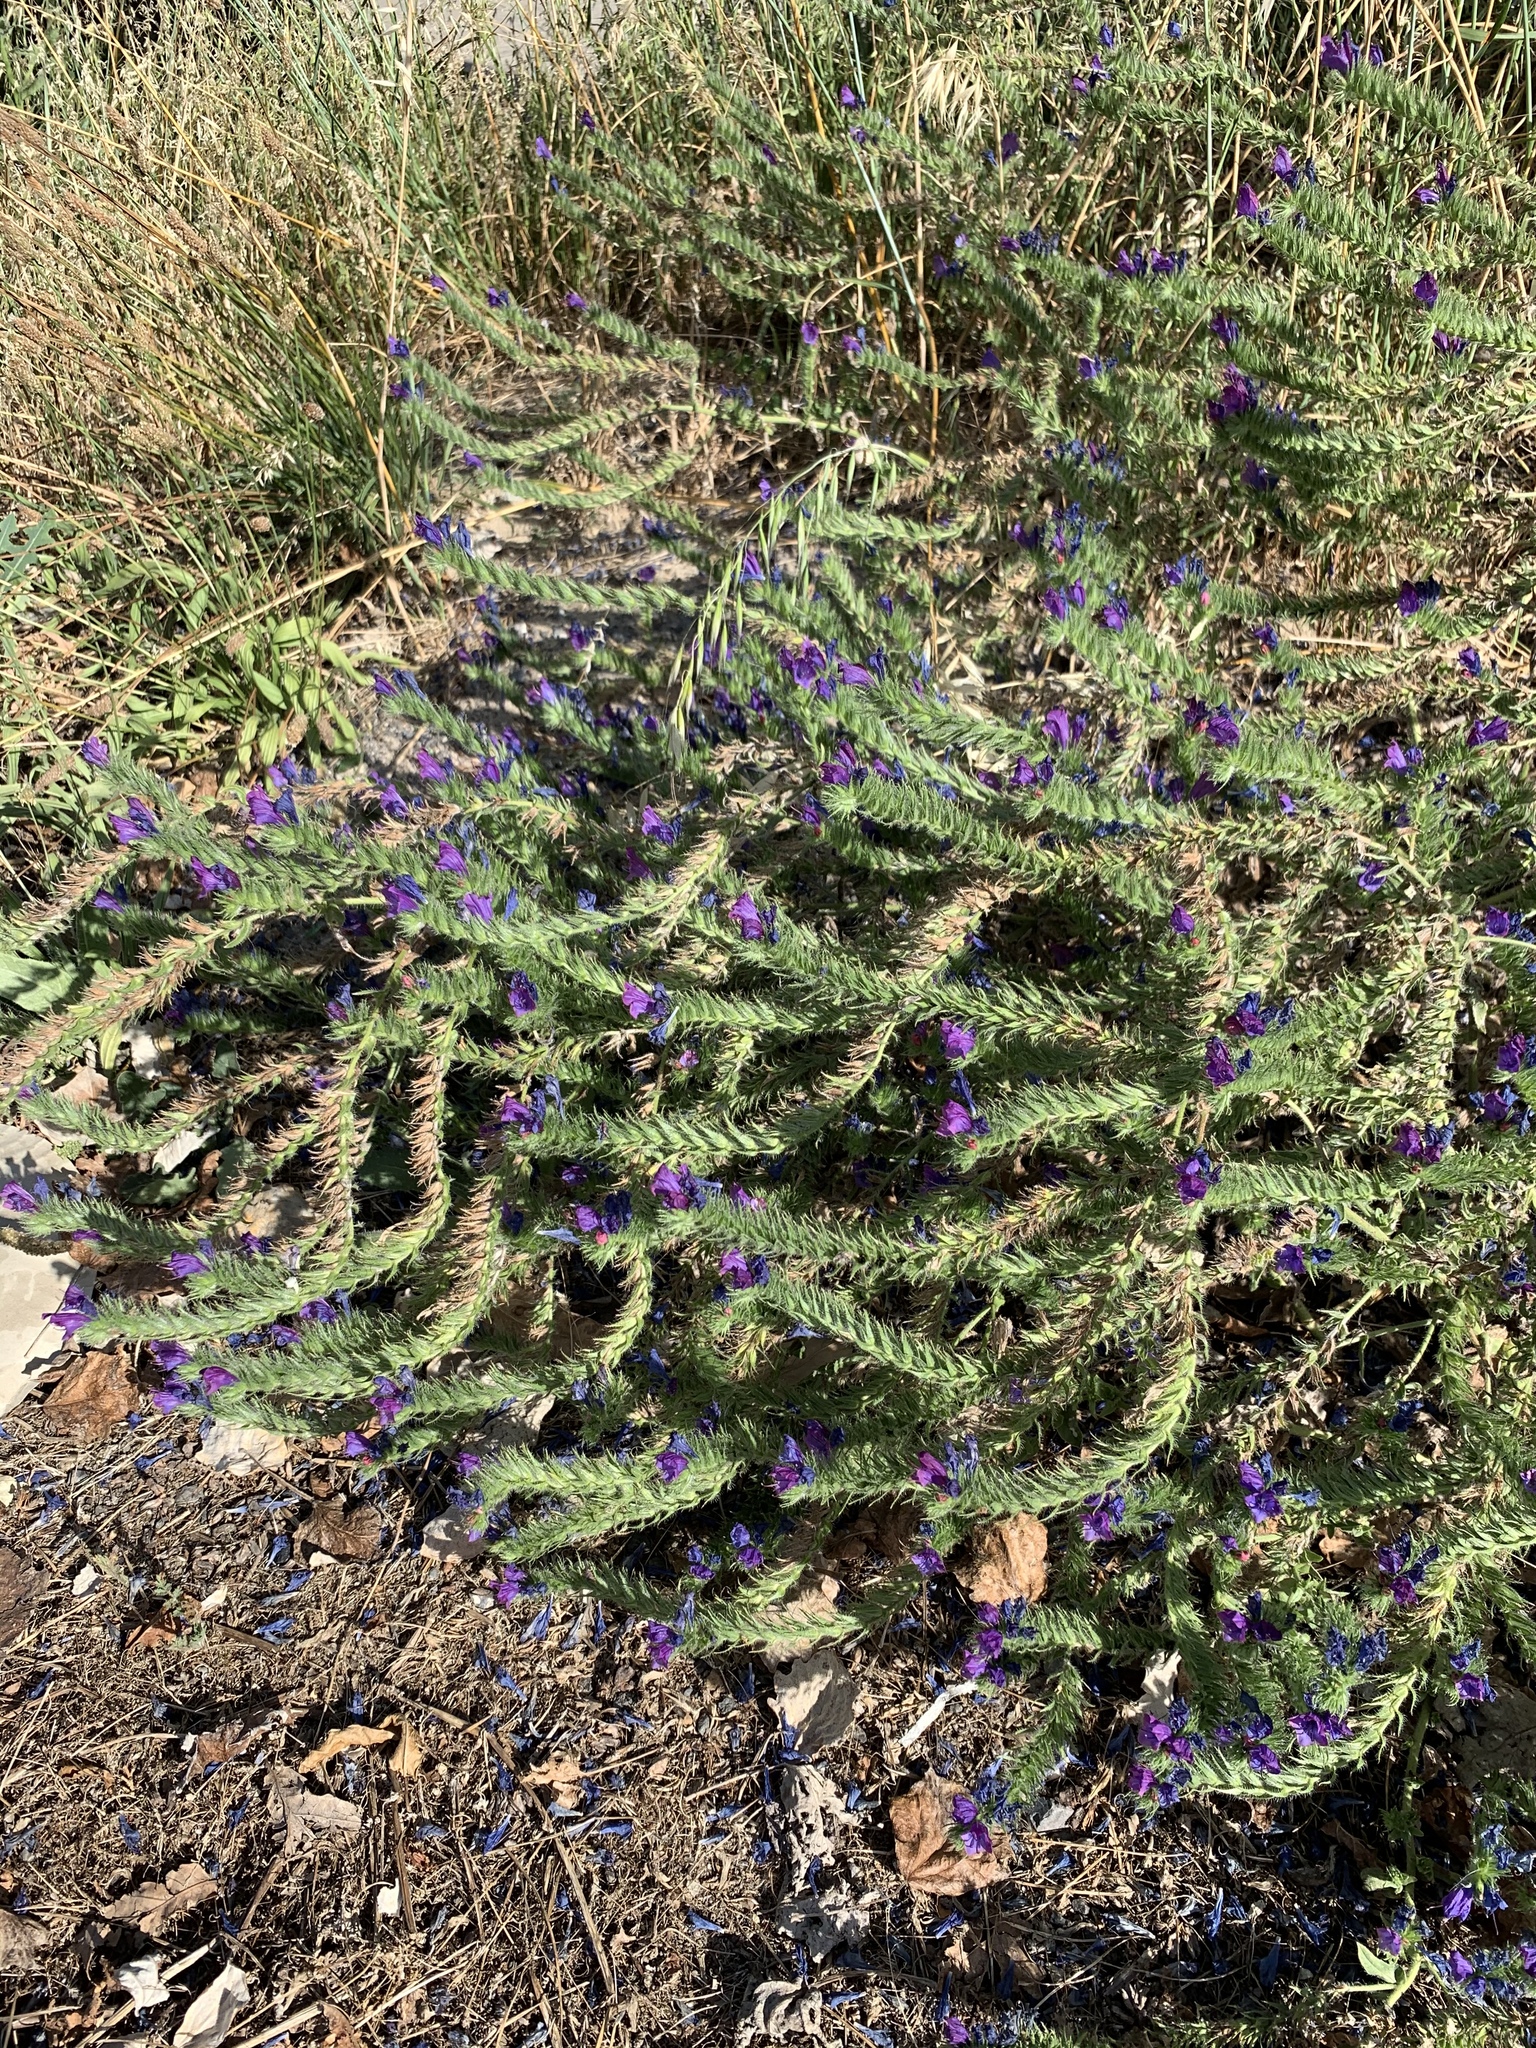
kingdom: Plantae
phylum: Tracheophyta
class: Magnoliopsida
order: Boraginales
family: Boraginaceae
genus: Echium
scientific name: Echium plantagineum
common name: Purple viper's-bugloss
